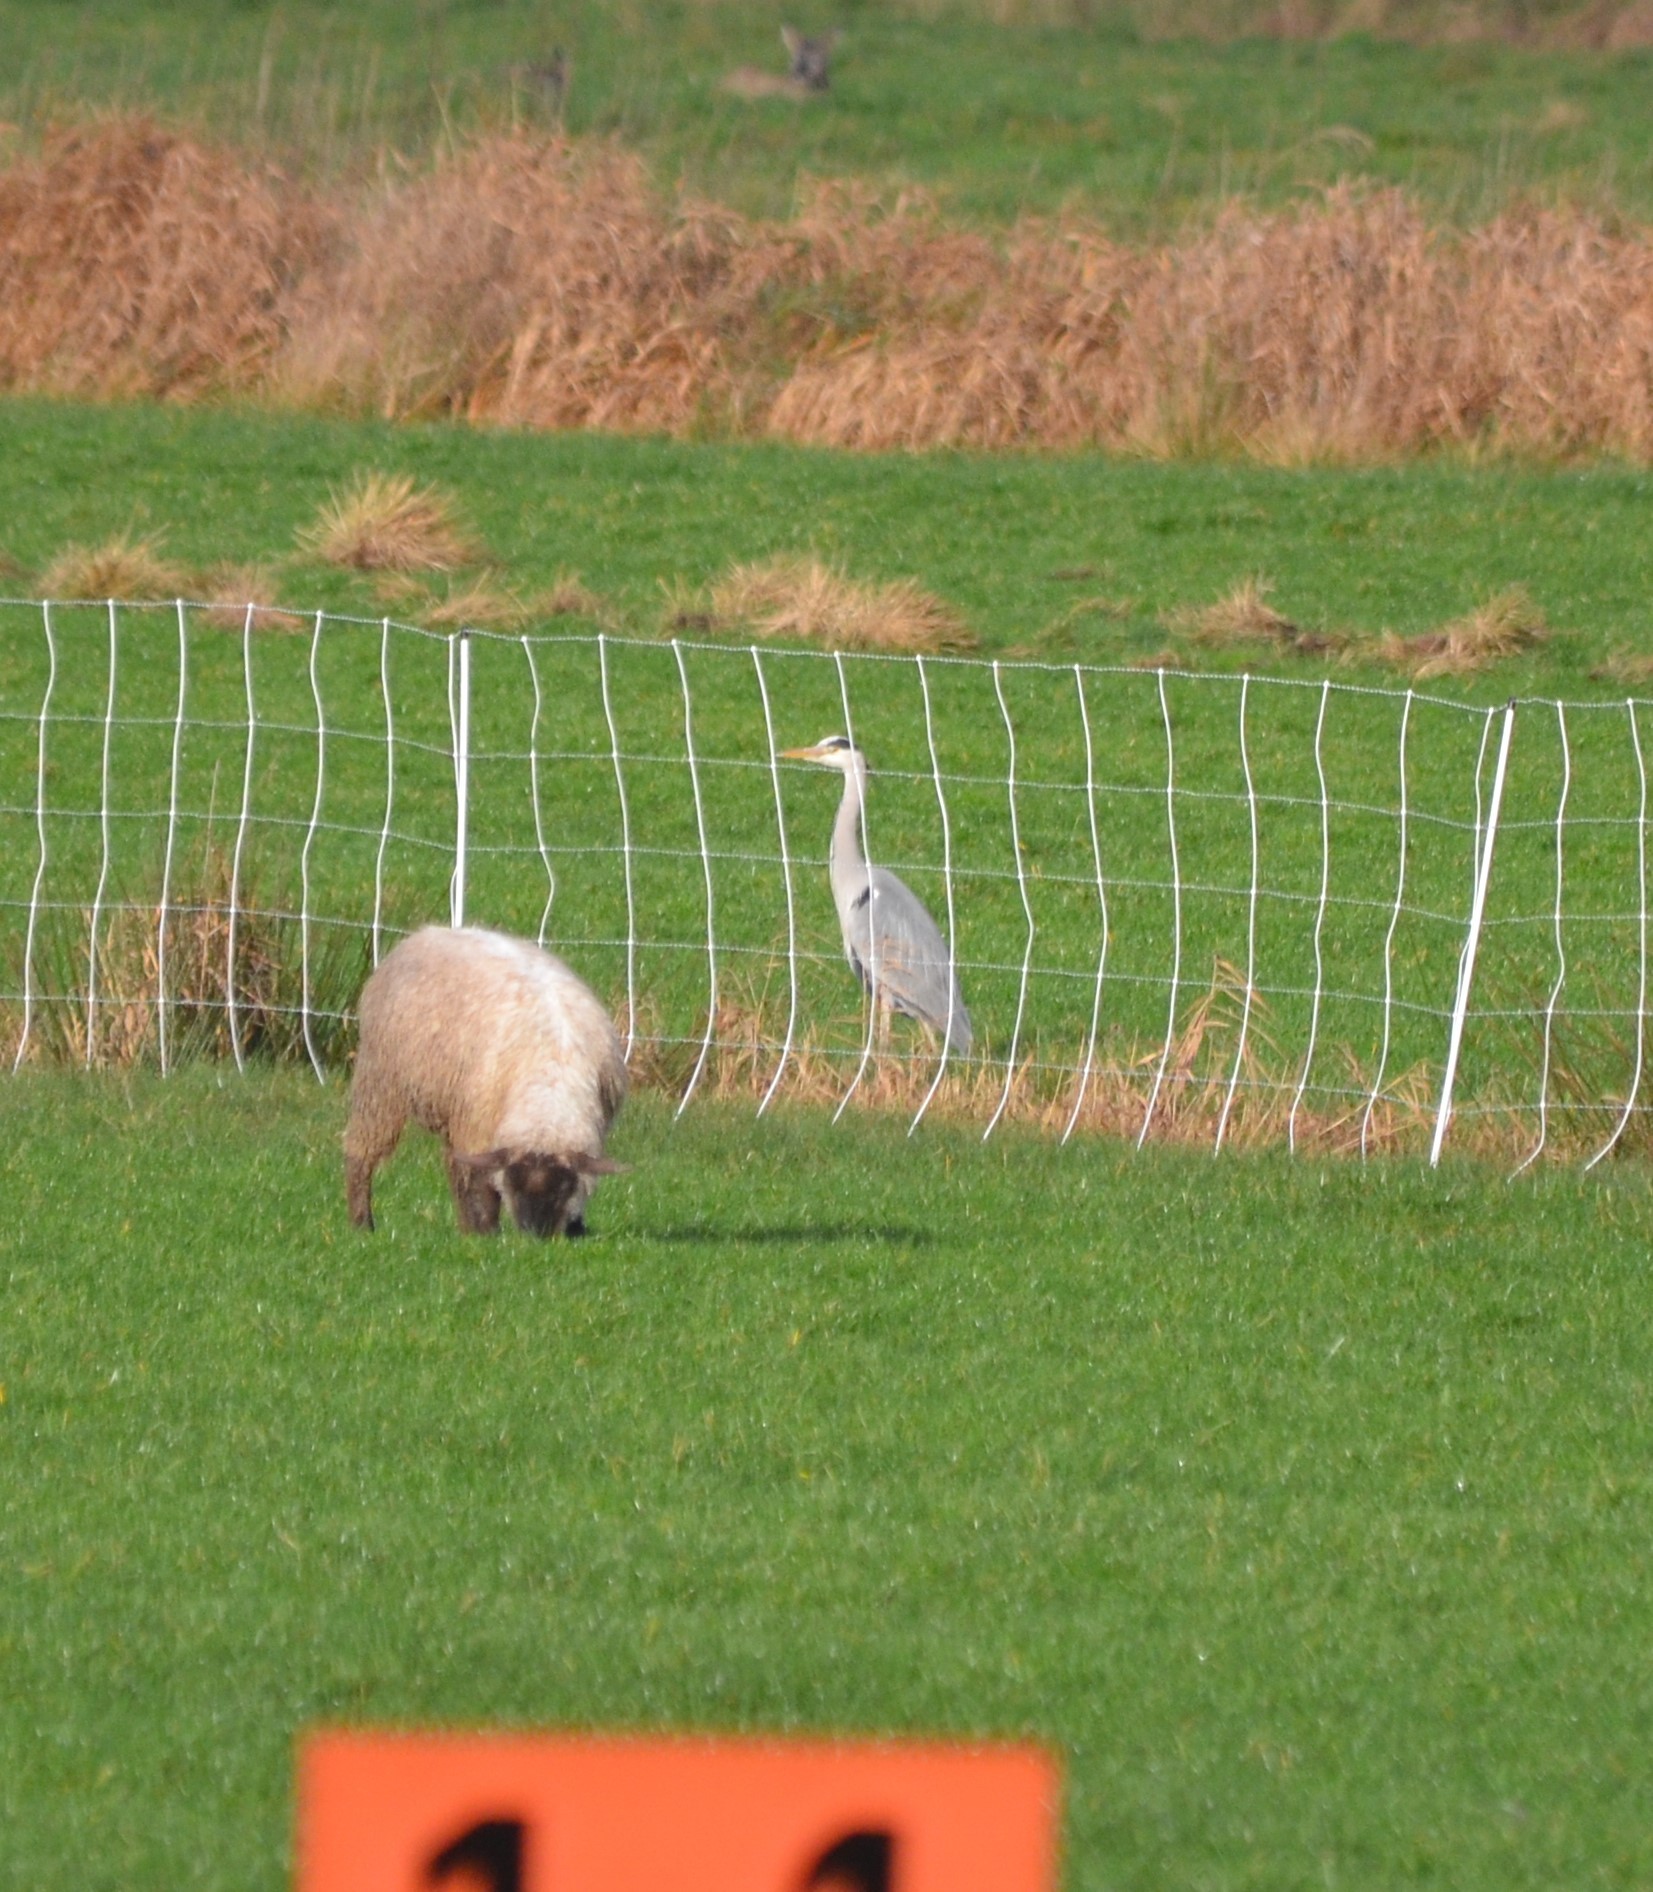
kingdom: Animalia
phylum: Chordata
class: Aves
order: Pelecaniformes
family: Ardeidae
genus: Ardea
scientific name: Ardea cinerea
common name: Grey heron
